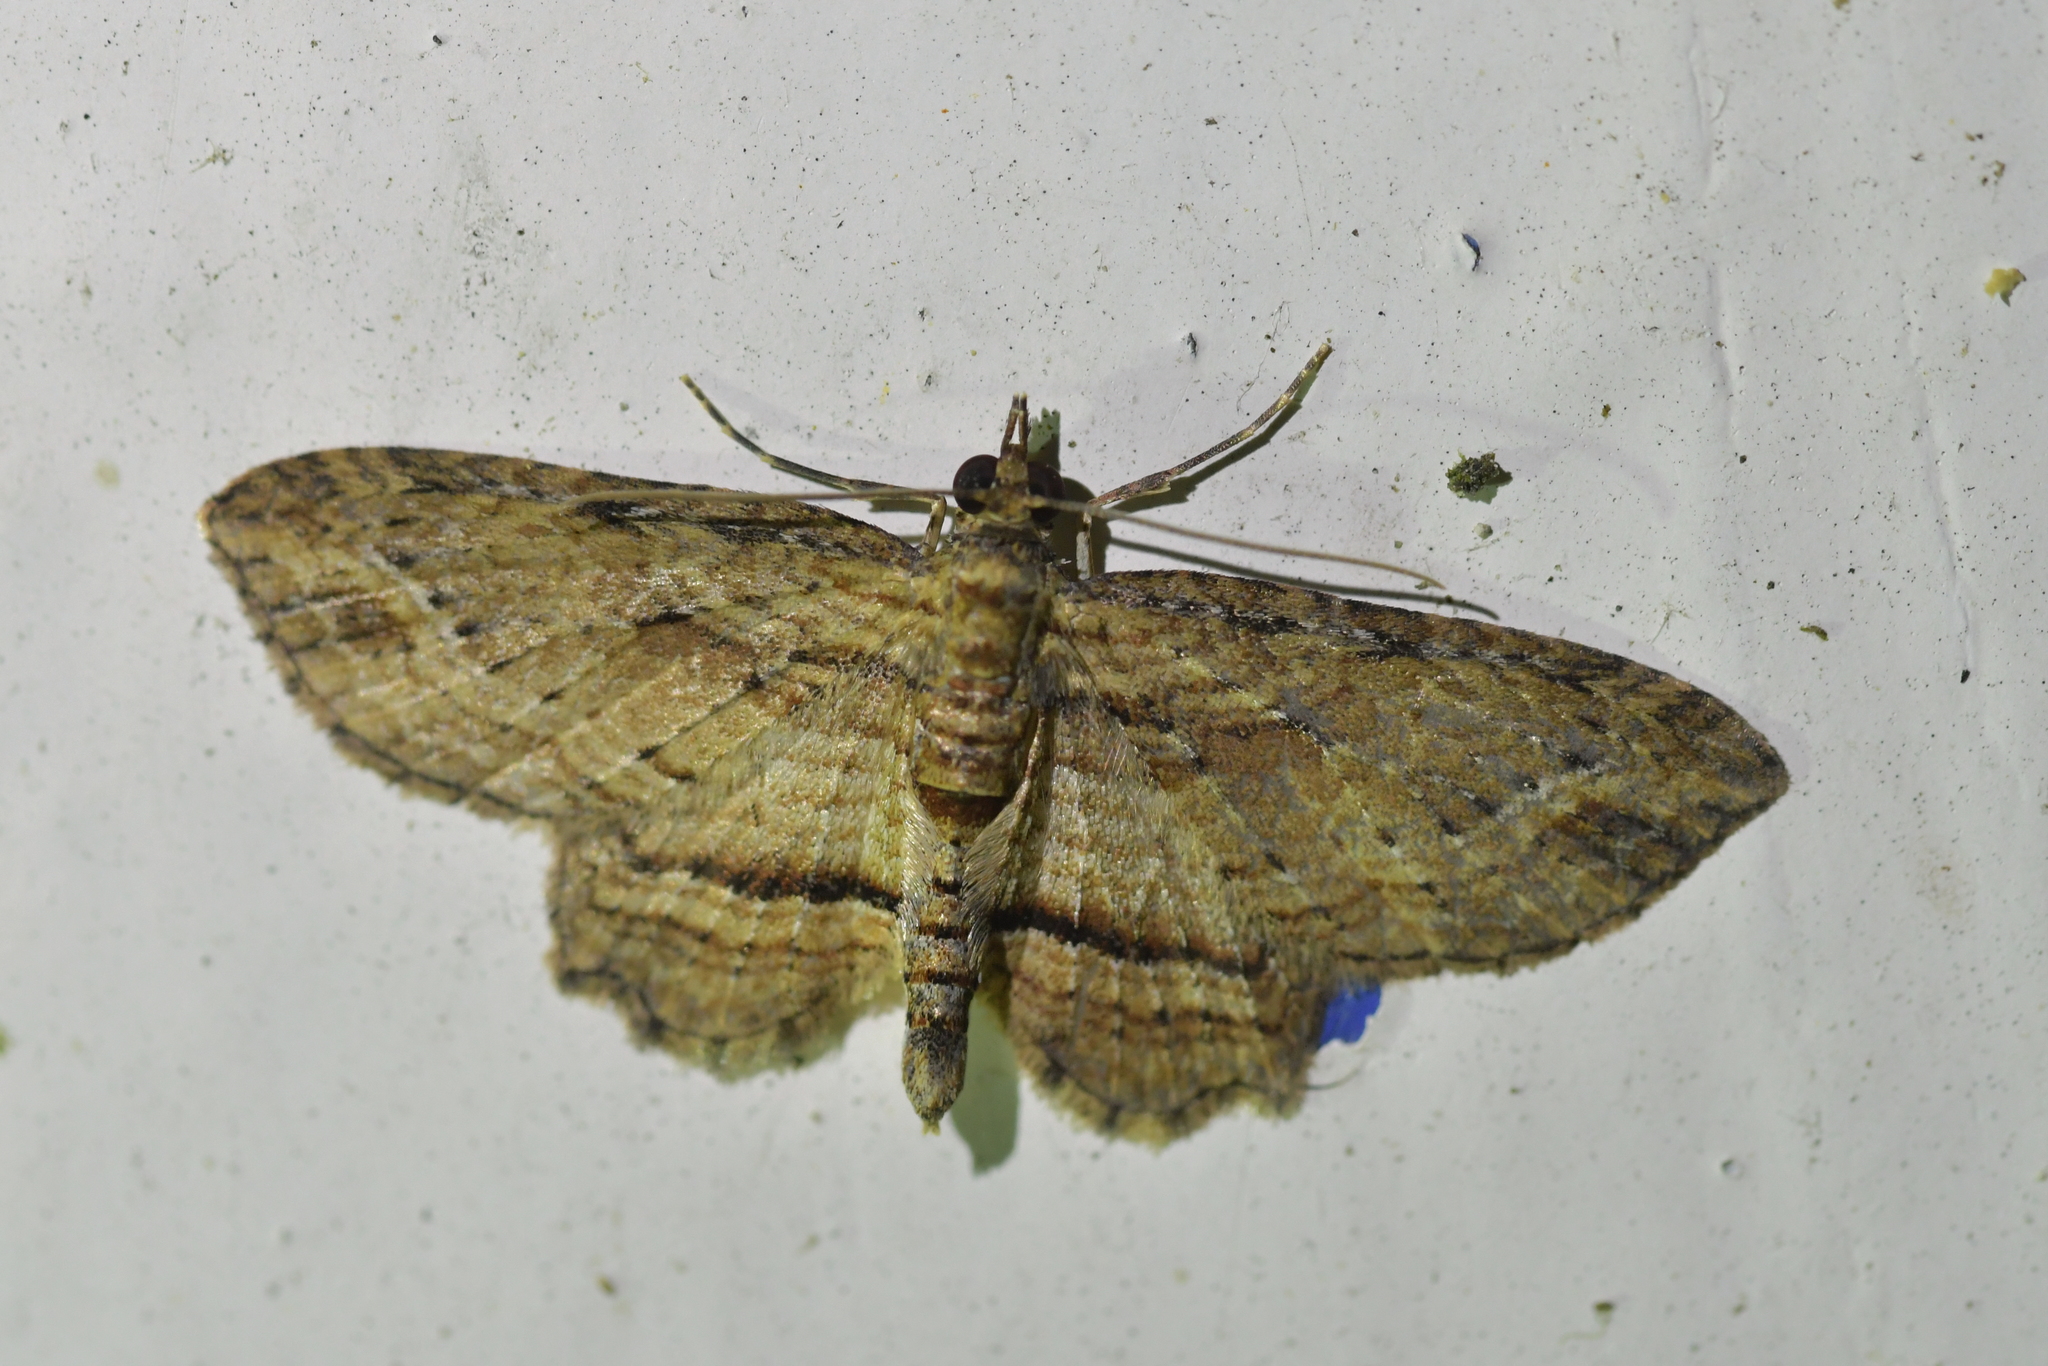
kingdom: Animalia
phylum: Arthropoda
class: Insecta
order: Lepidoptera
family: Geometridae
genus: Chloroclystis
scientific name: Chloroclystis filata
